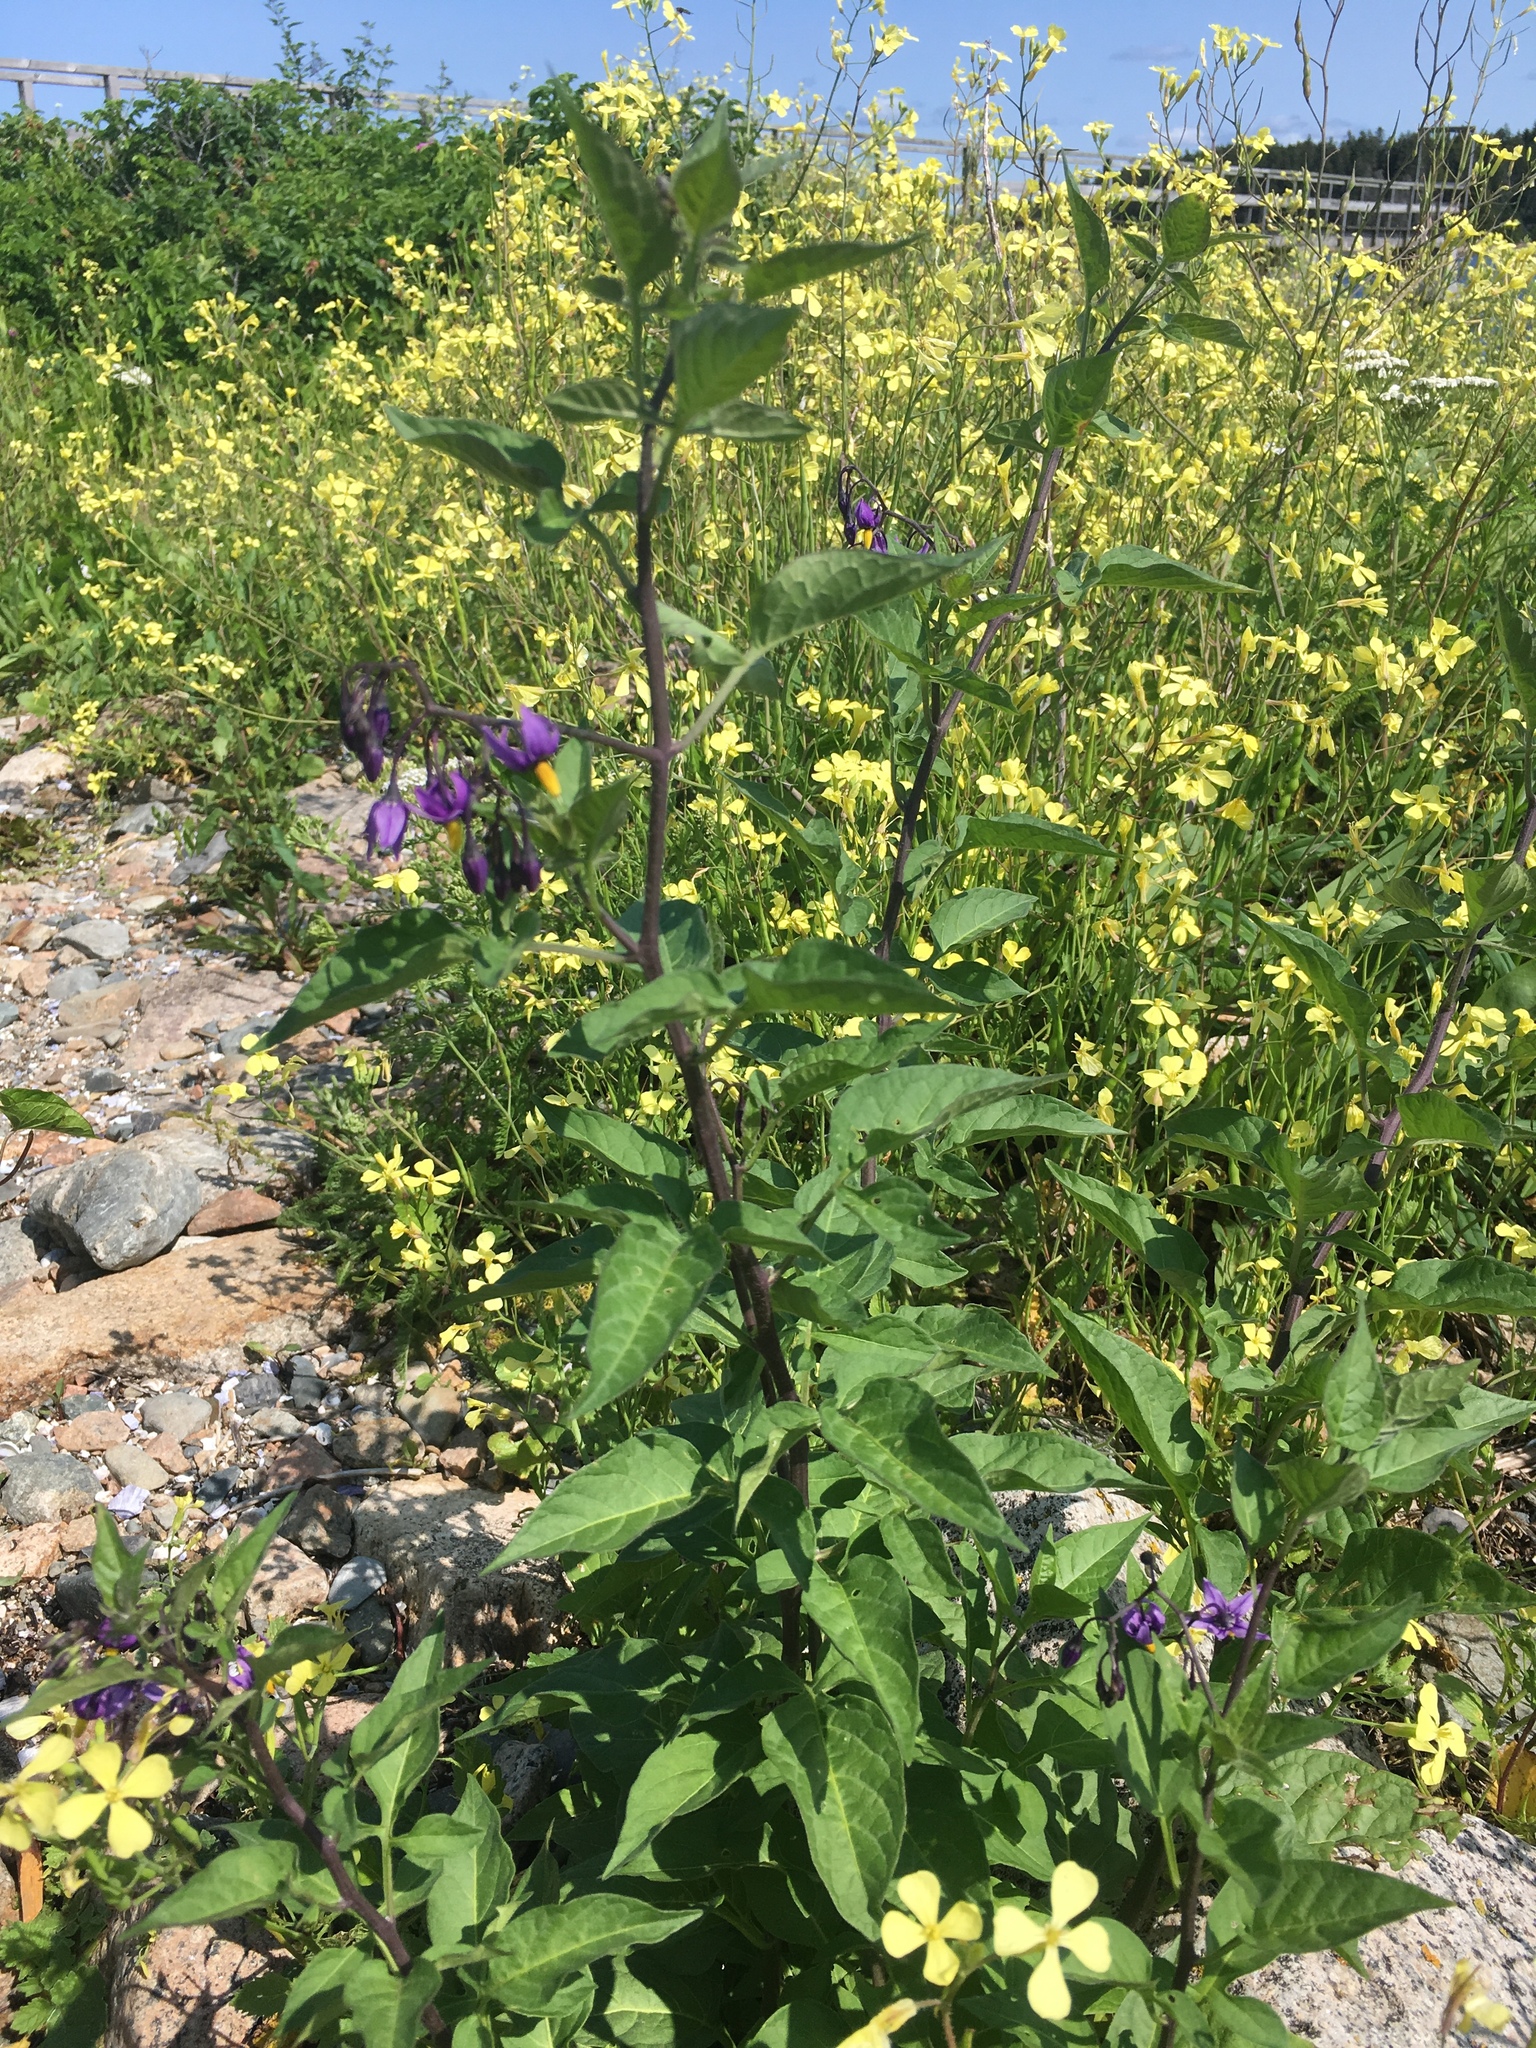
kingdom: Plantae
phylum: Tracheophyta
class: Magnoliopsida
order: Solanales
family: Solanaceae
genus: Solanum
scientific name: Solanum dulcamara
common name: Climbing nightshade
